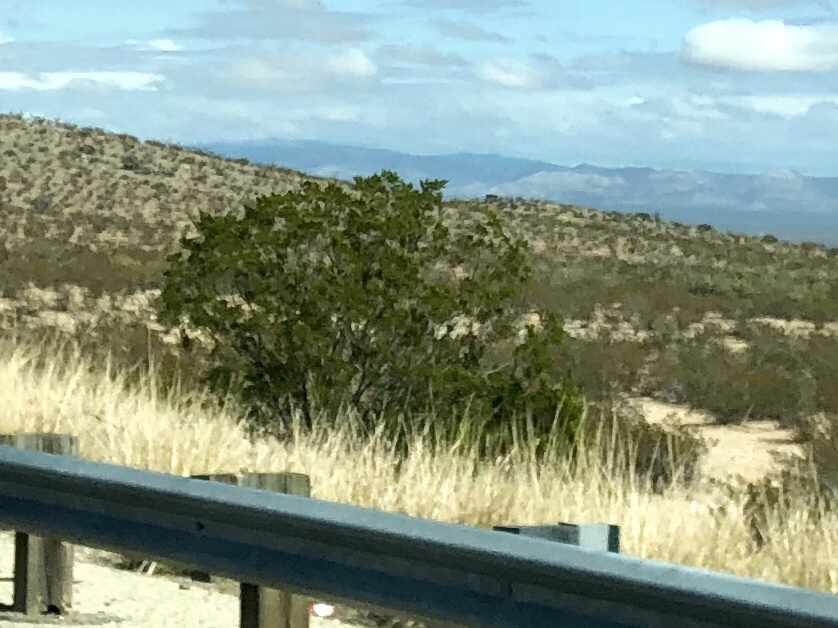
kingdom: Plantae
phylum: Tracheophyta
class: Magnoliopsida
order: Zygophyllales
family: Zygophyllaceae
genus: Larrea
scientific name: Larrea tridentata
